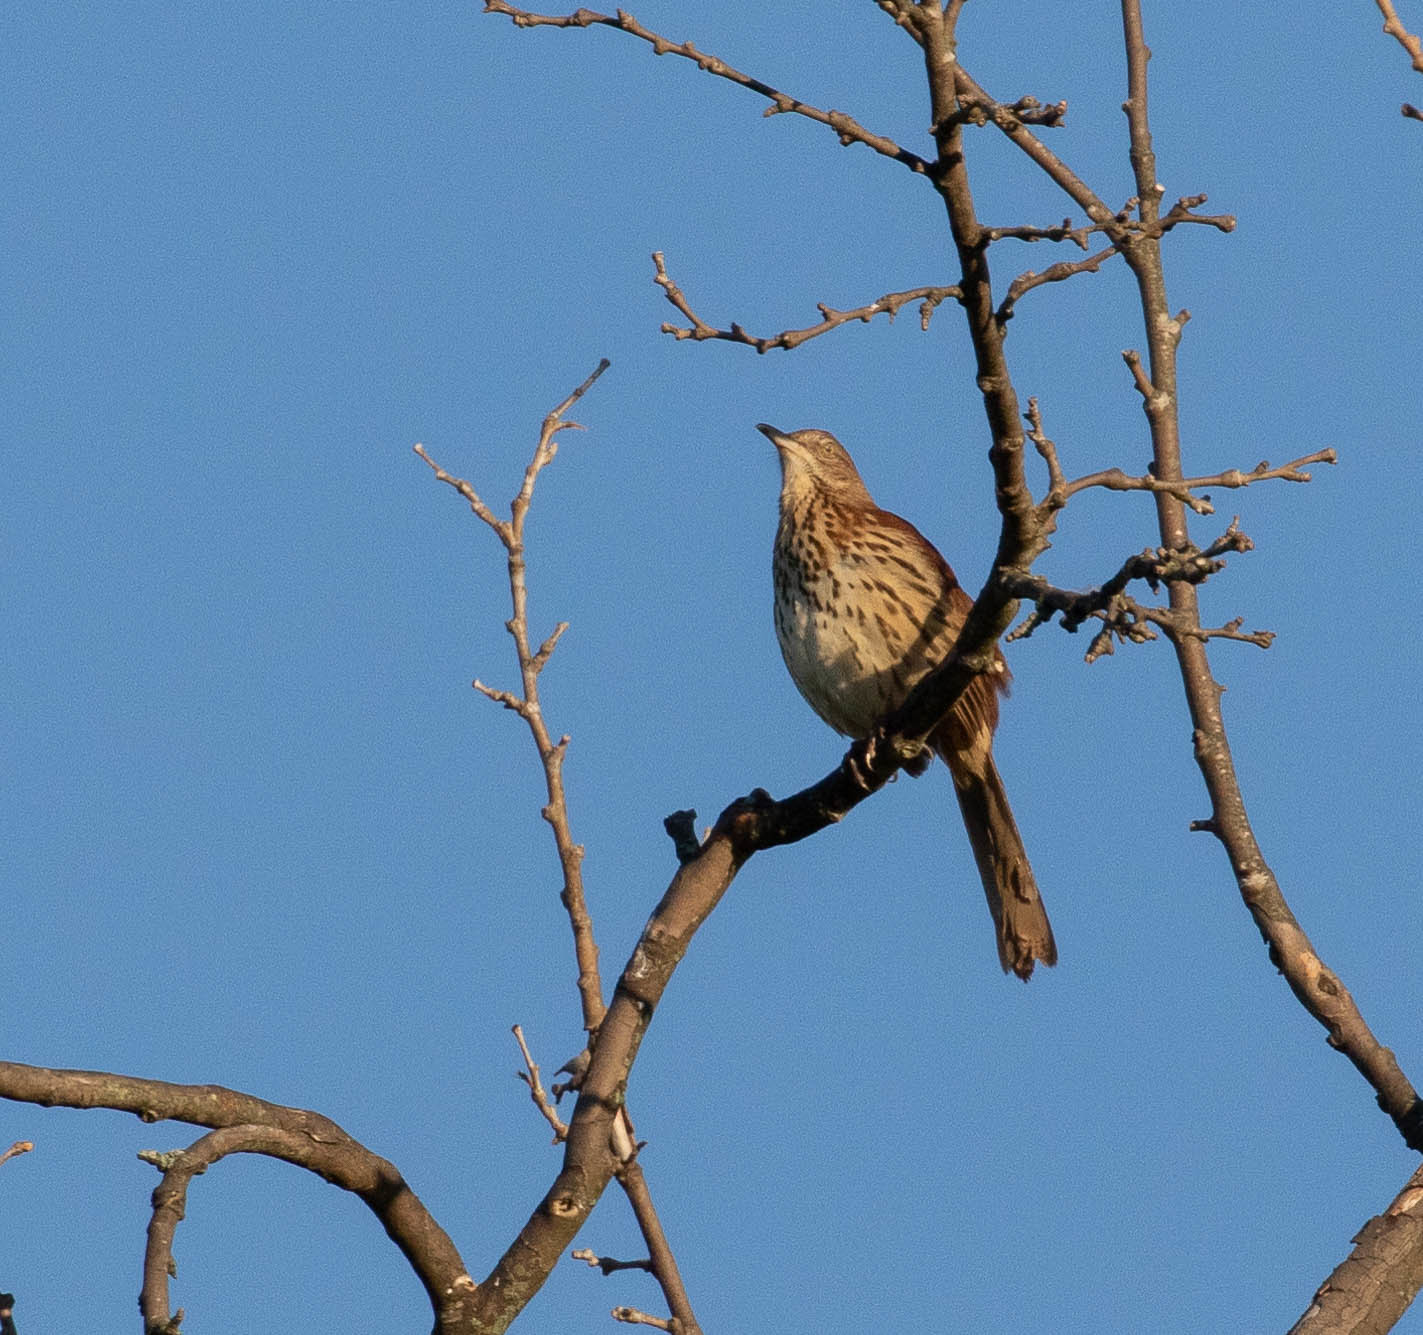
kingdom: Animalia
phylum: Chordata
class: Aves
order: Passeriformes
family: Mimidae
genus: Toxostoma
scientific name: Toxostoma rufum
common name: Brown thrasher
